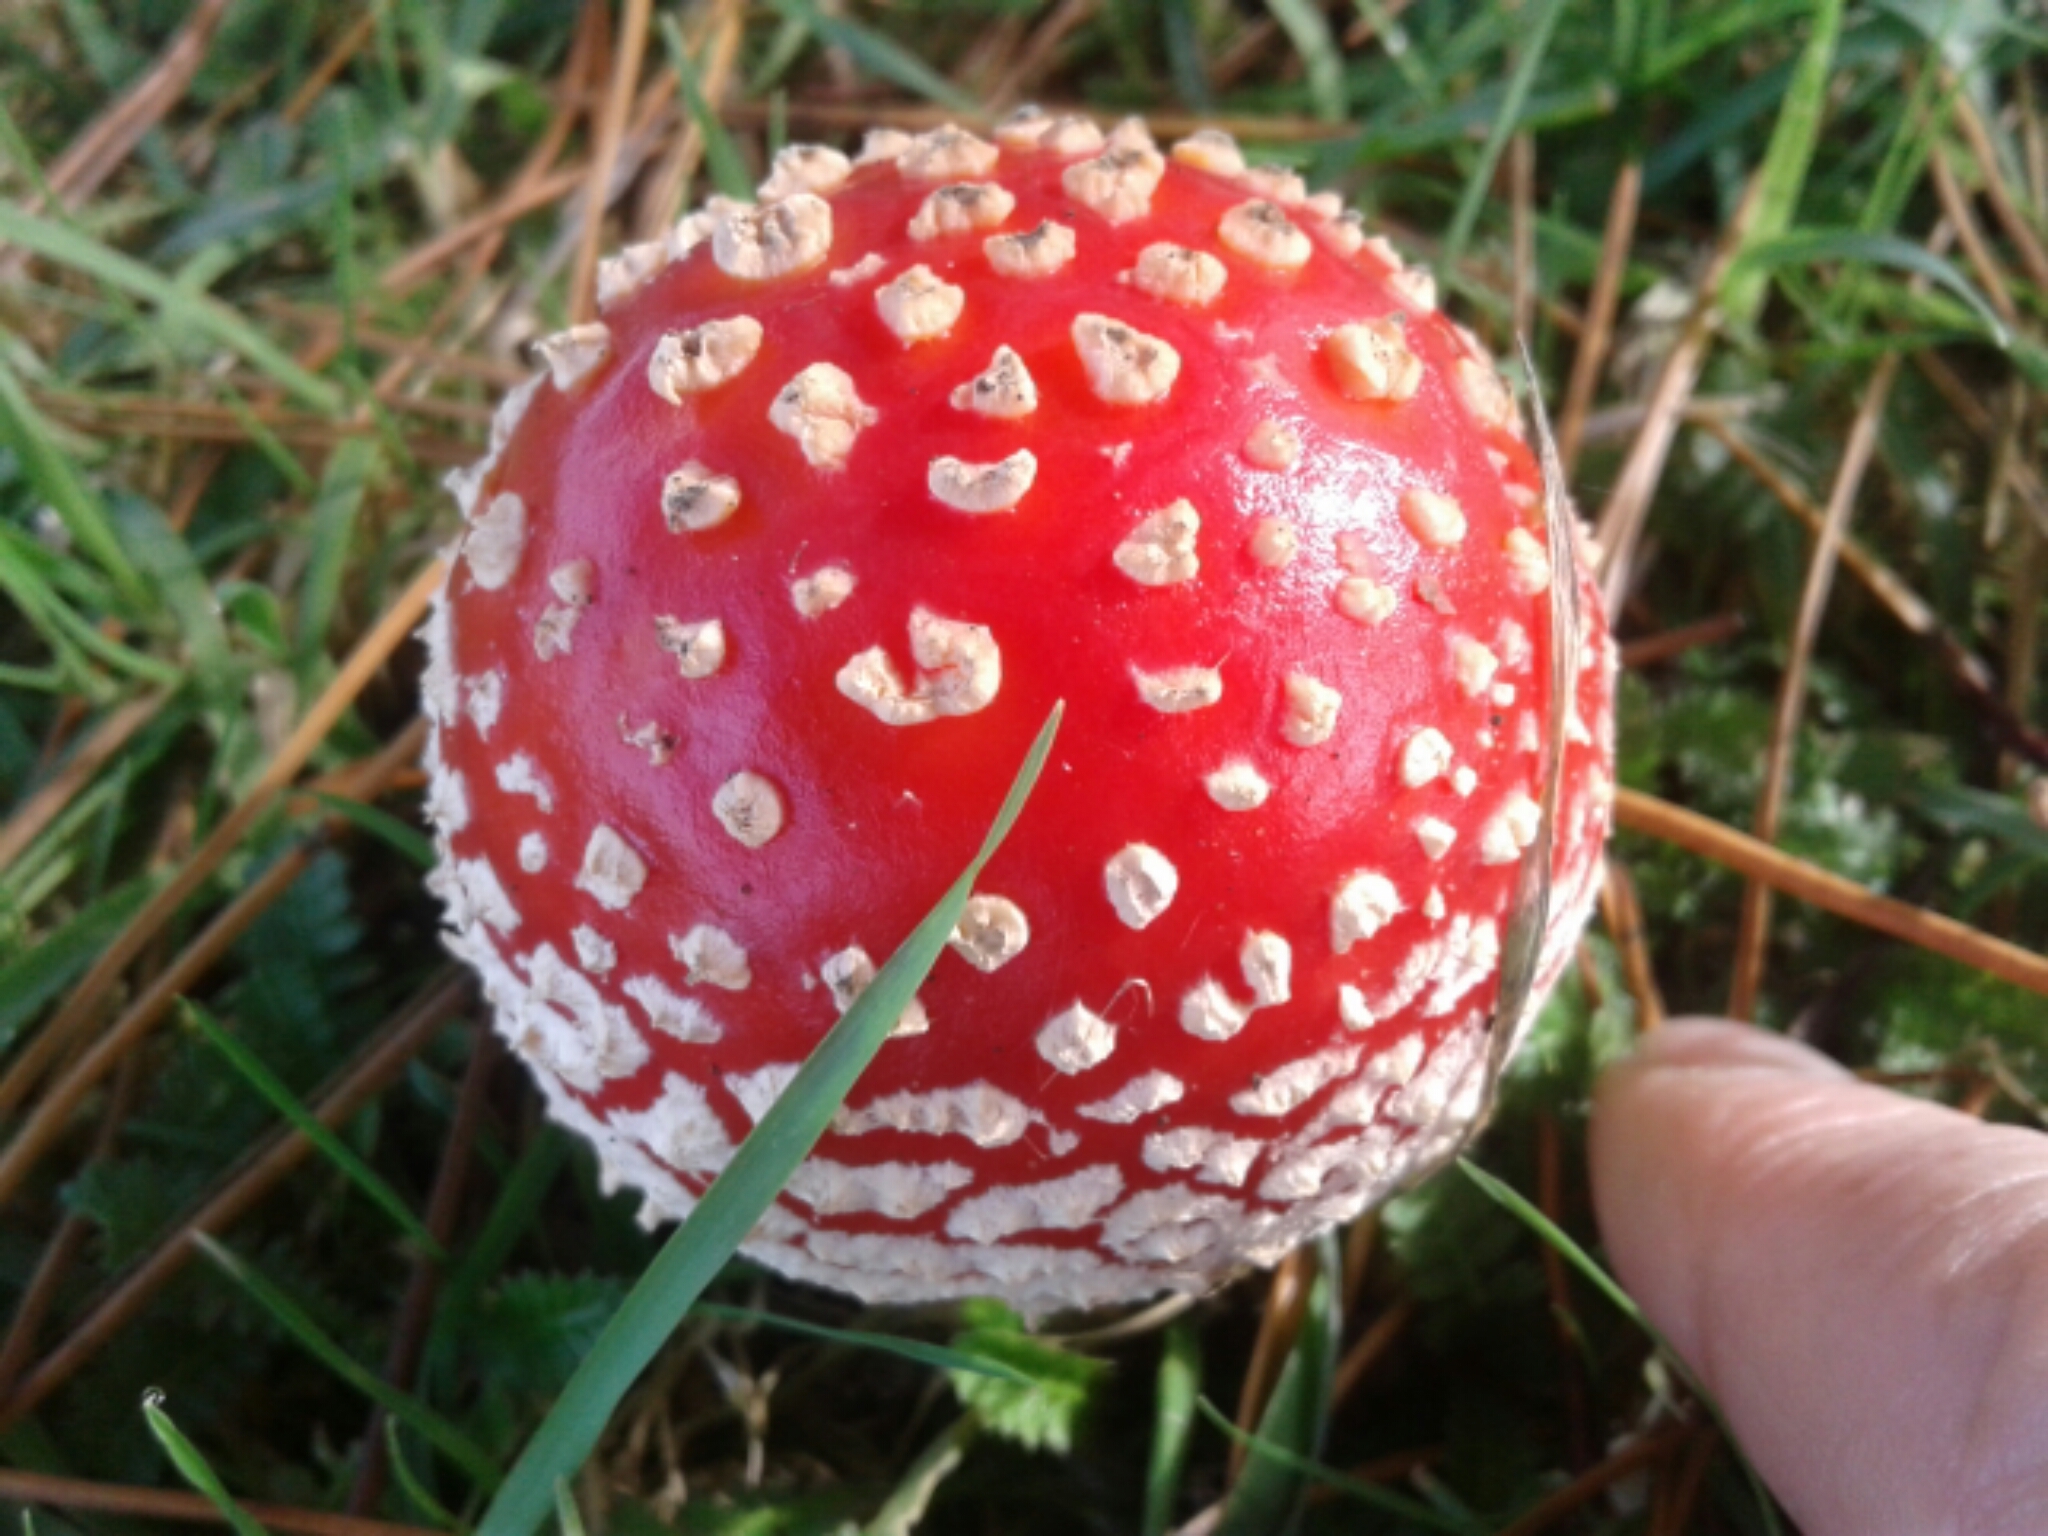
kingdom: Fungi
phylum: Basidiomycota
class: Agaricomycetes
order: Agaricales
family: Amanitaceae
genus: Amanita
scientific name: Amanita muscaria
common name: Fly agaric
